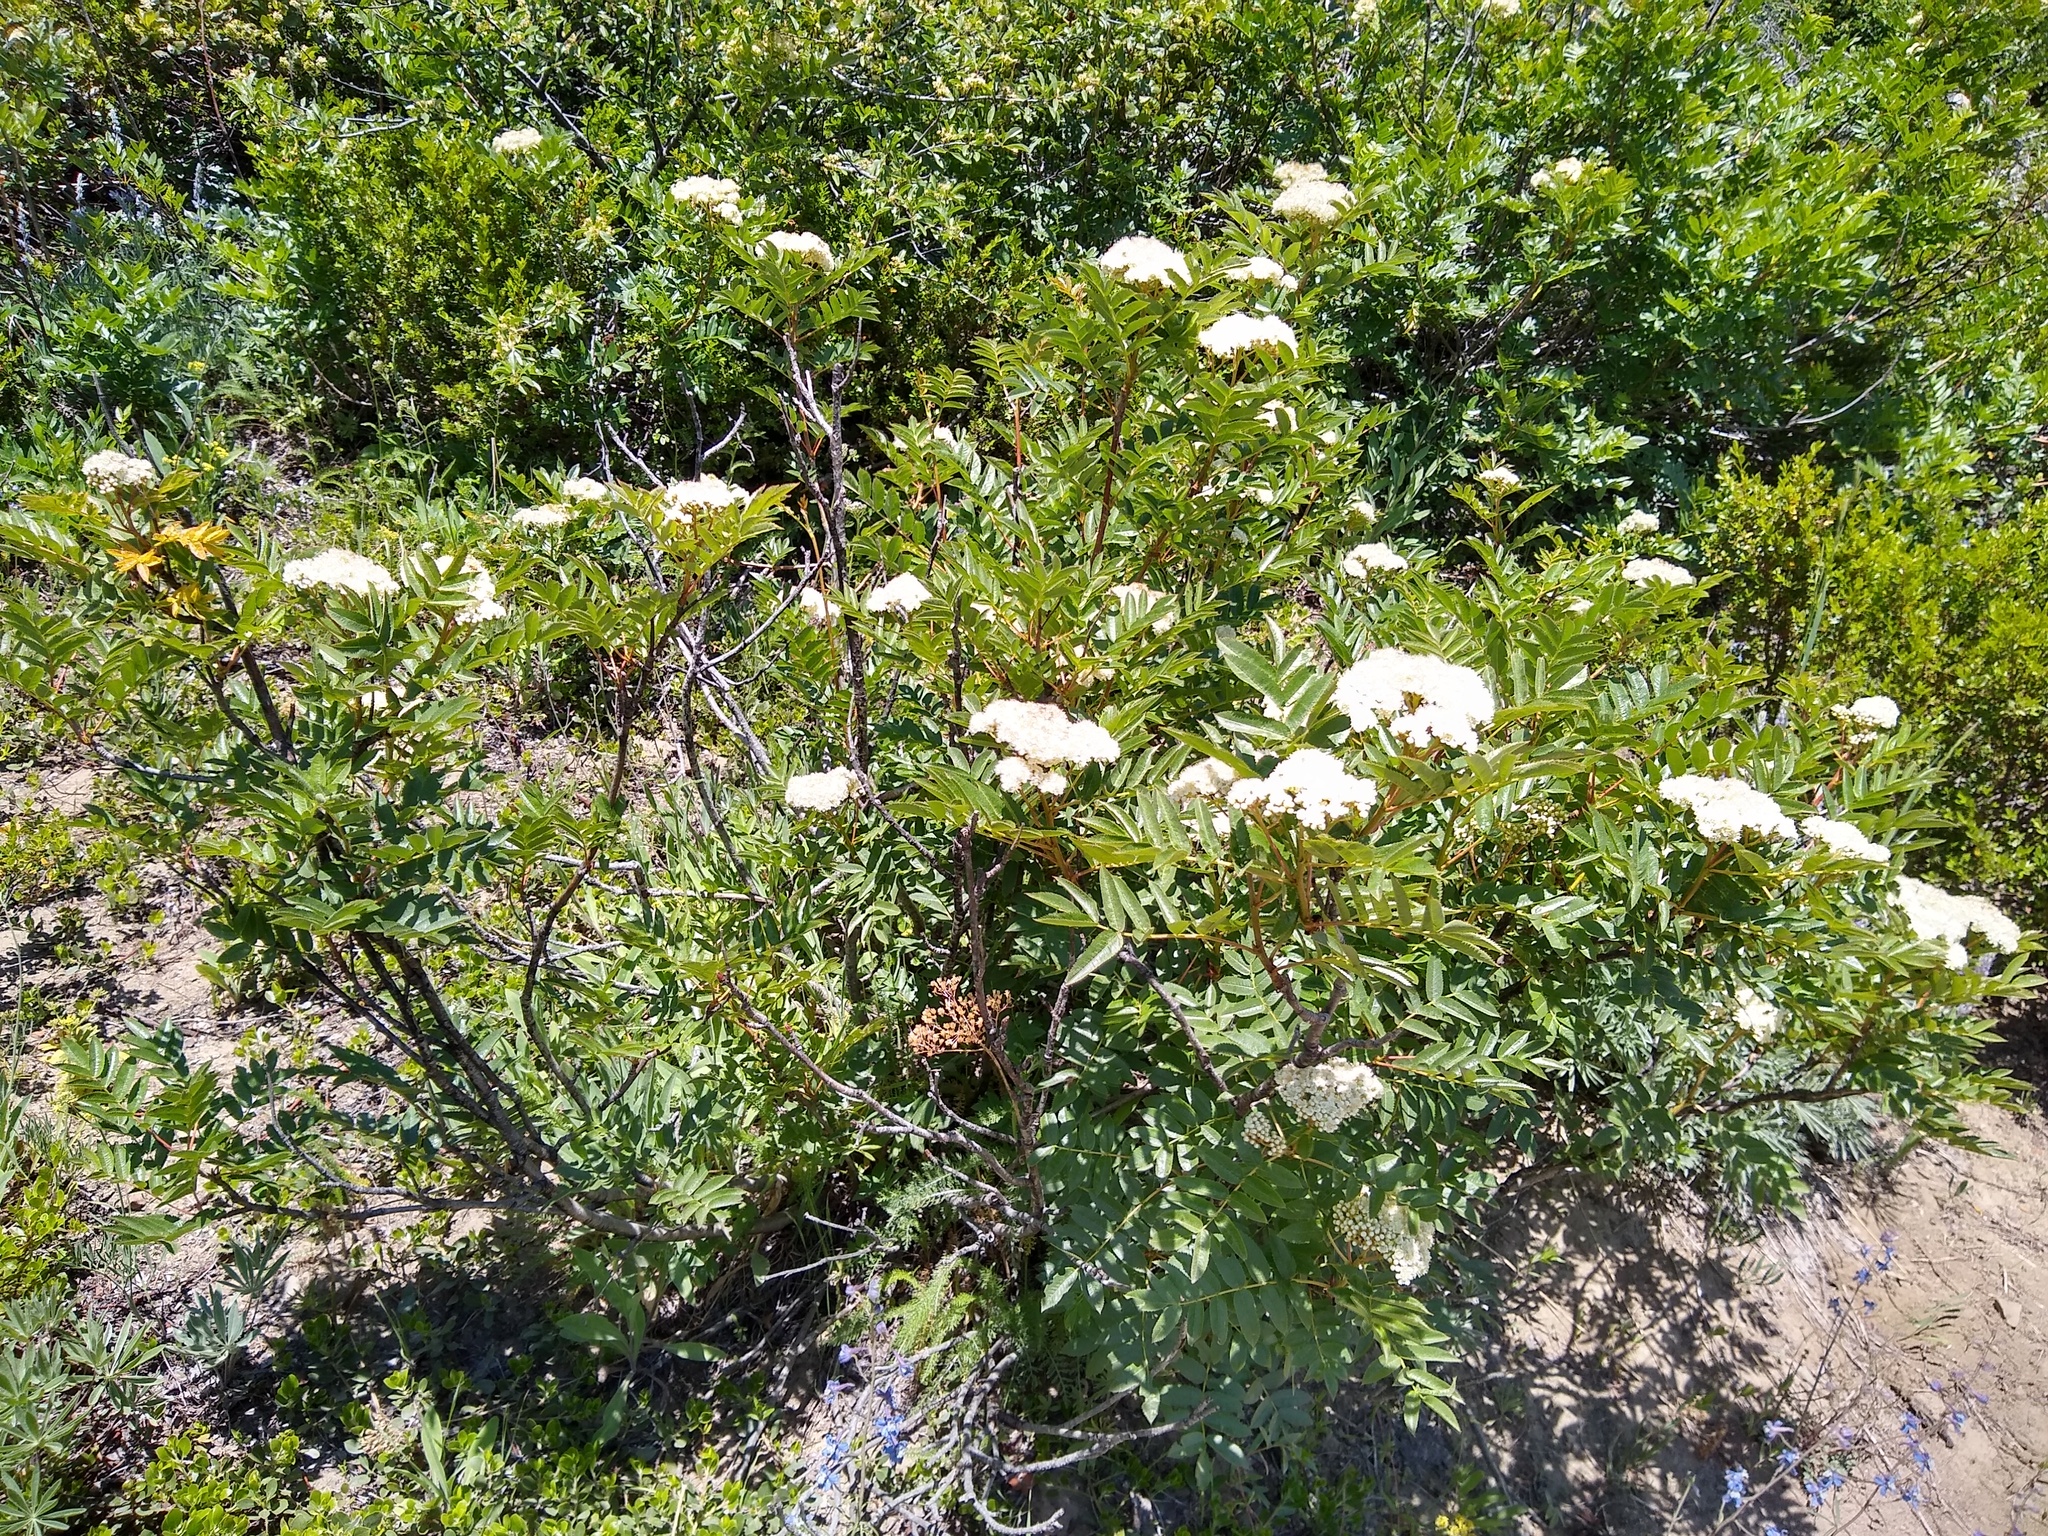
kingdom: Plantae
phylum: Tracheophyta
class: Magnoliopsida
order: Rosales
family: Rosaceae
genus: Sorbus
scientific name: Sorbus scopulina
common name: Greene's mountain-ash
